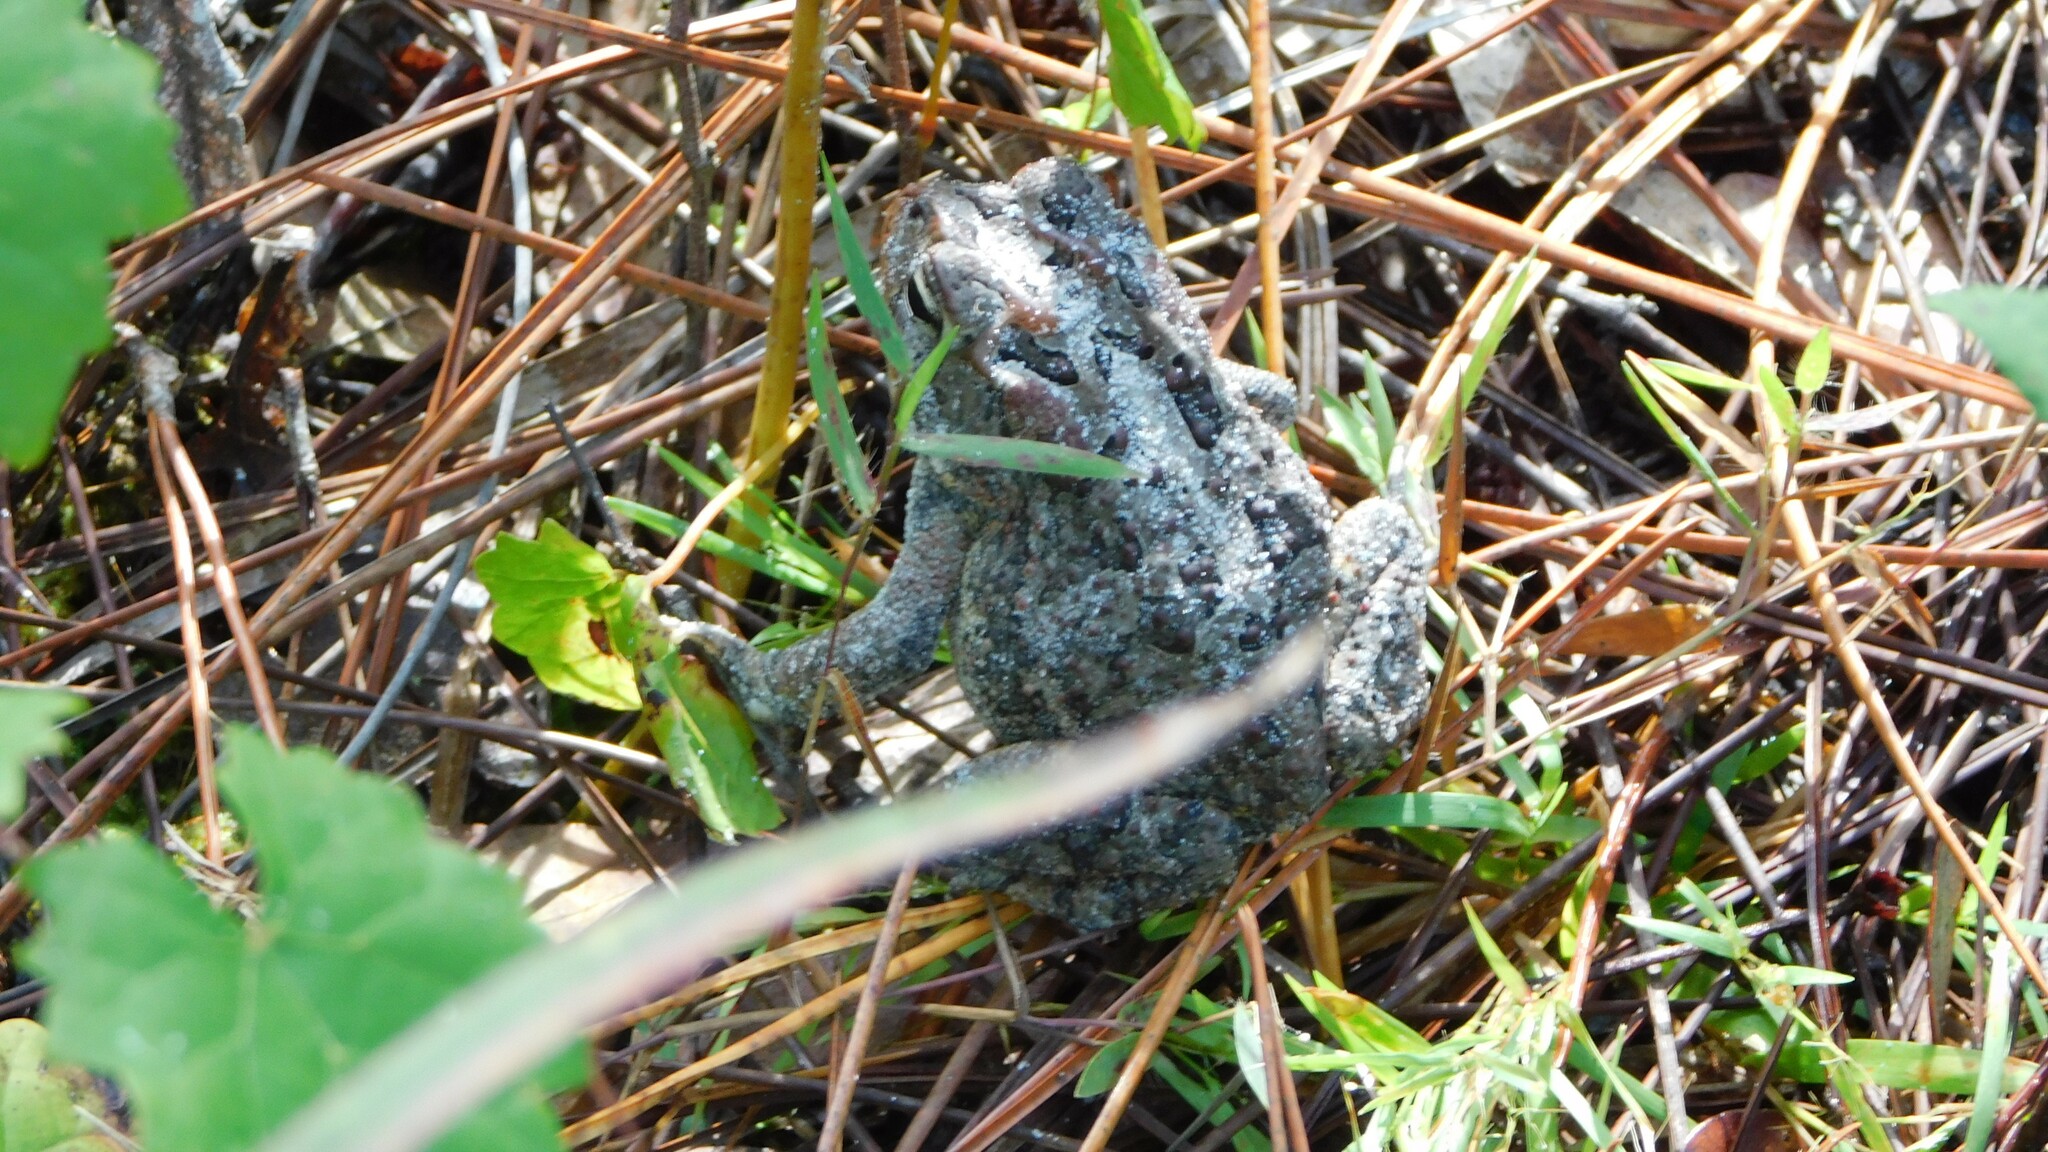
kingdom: Animalia
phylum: Chordata
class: Amphibia
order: Anura
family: Bufonidae
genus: Anaxyrus
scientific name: Anaxyrus terrestris
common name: Southern toad
